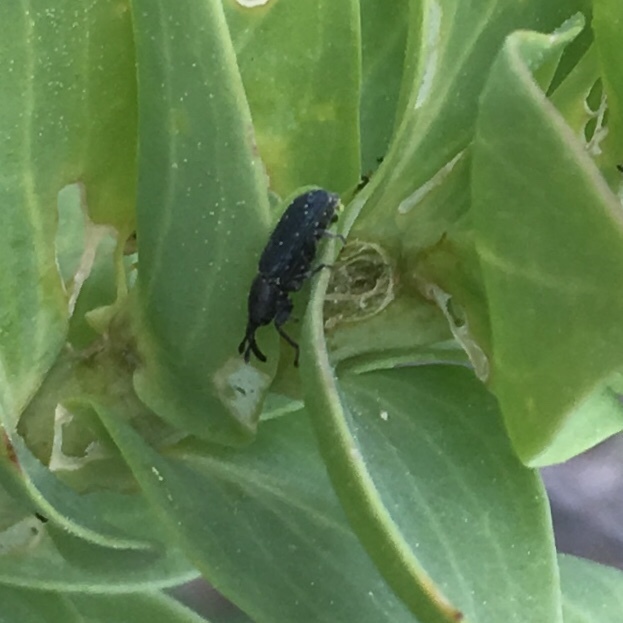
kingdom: Animalia
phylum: Arthropoda
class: Insecta
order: Coleoptera
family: Curculionidae
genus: Mecinus
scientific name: Mecinus janthiniformis
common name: Dalmatian toadflax stem weevil
